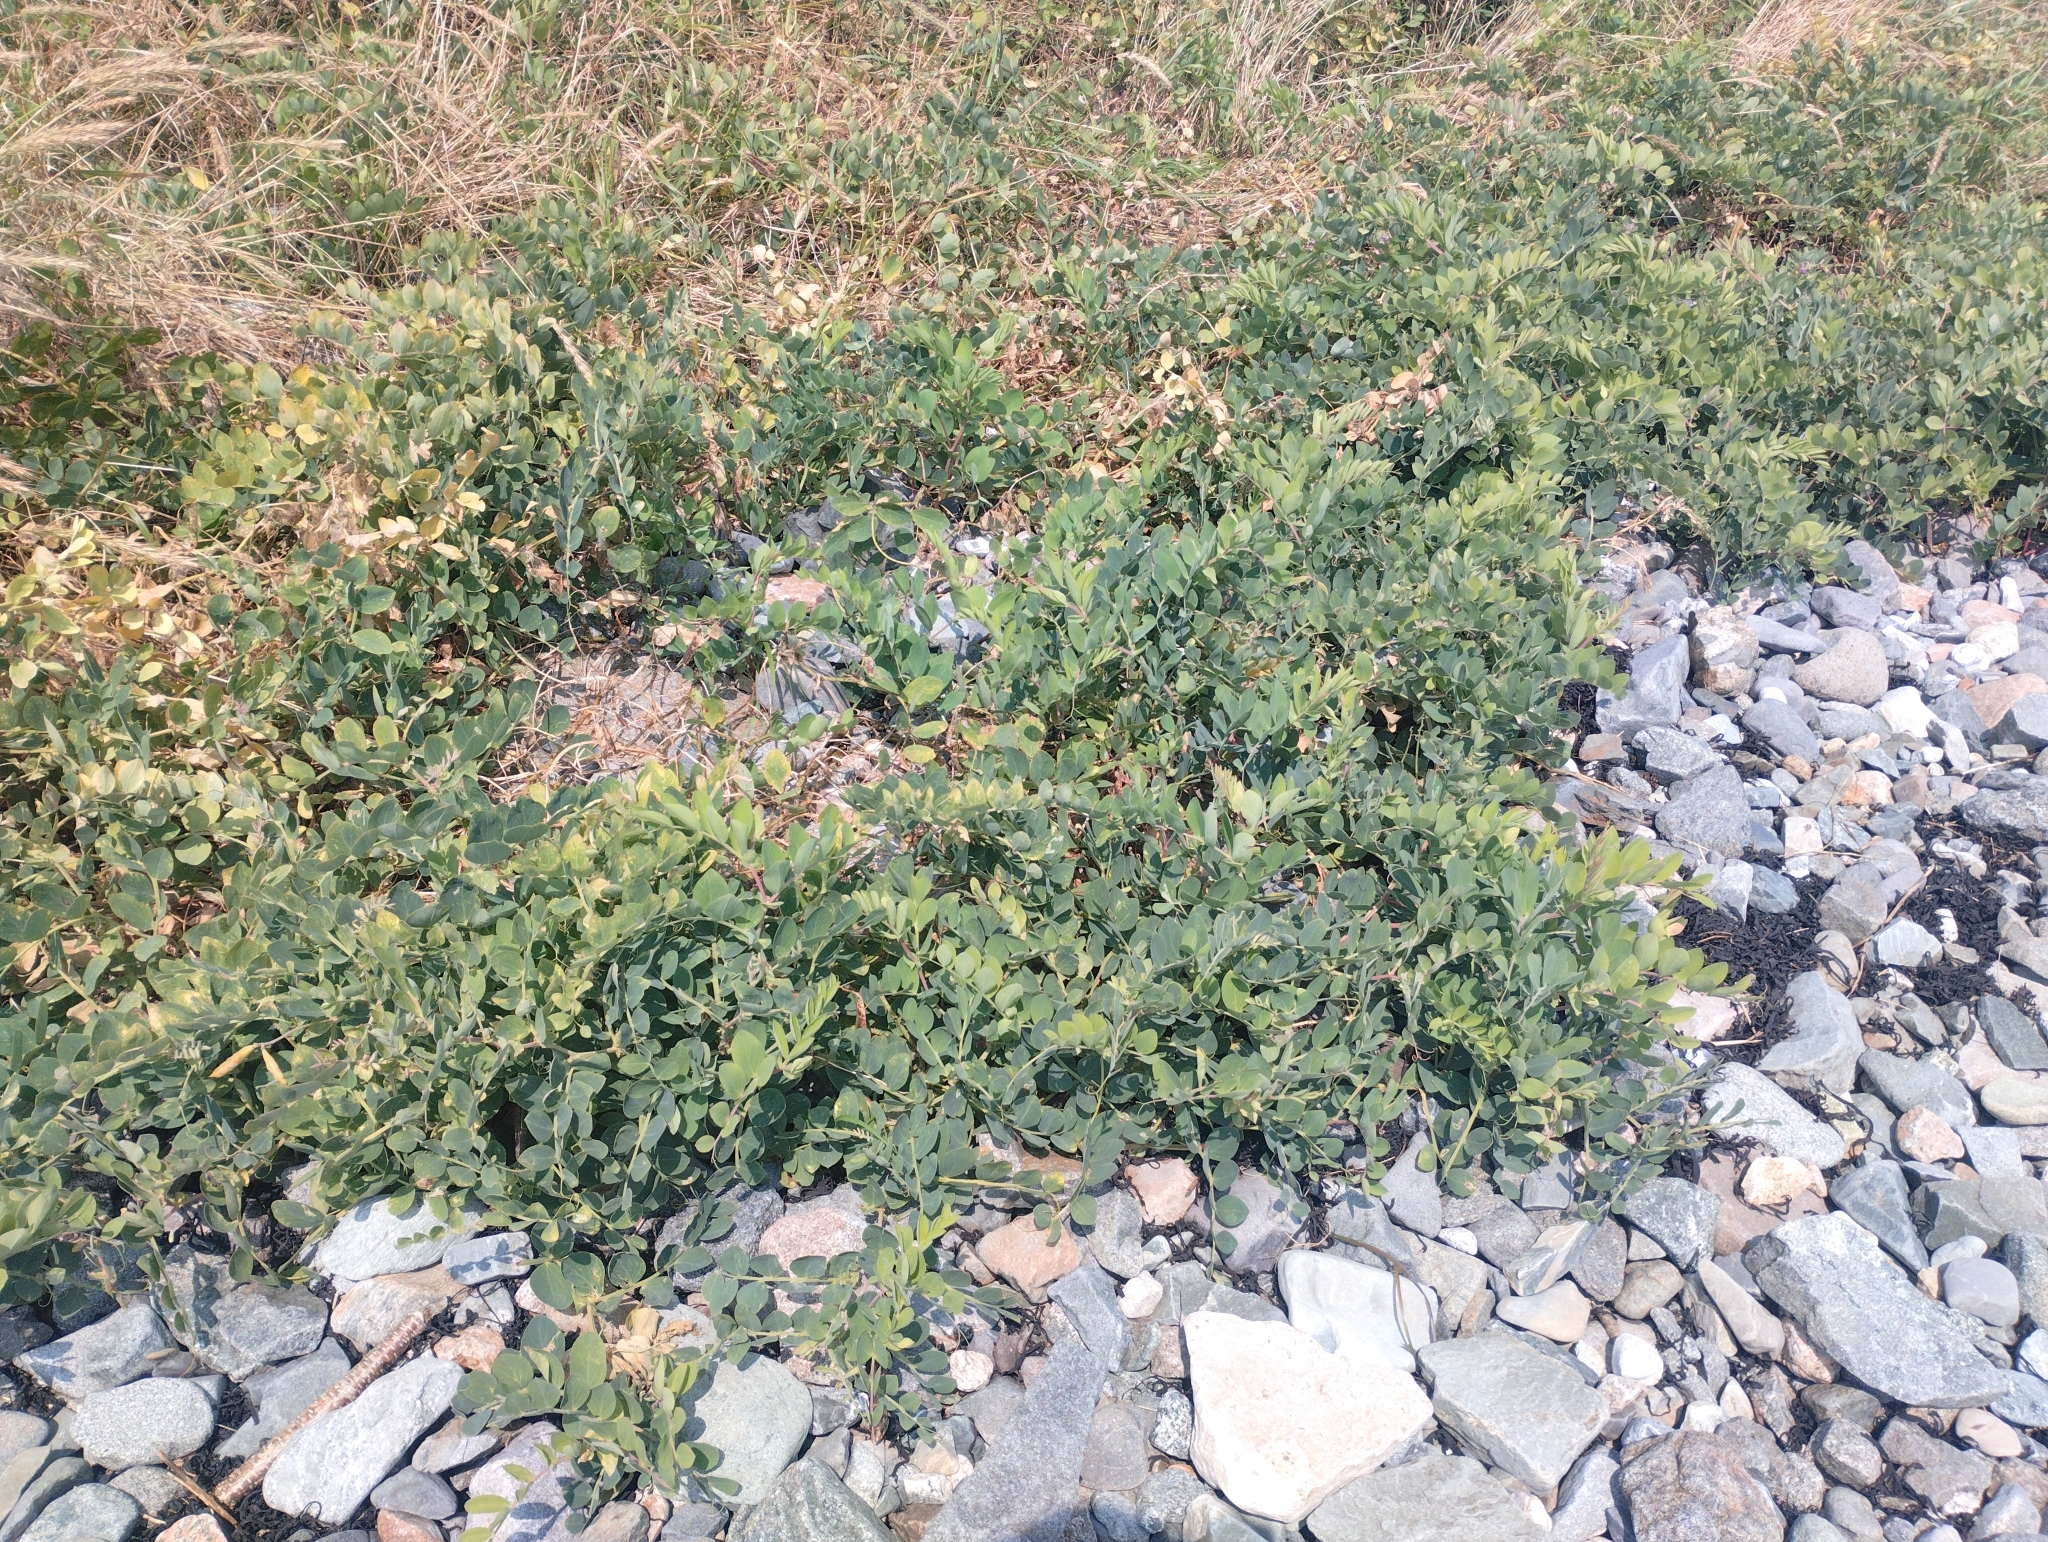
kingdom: Plantae
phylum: Tracheophyta
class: Magnoliopsida
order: Fabales
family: Fabaceae
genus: Lathyrus
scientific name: Lathyrus japonicus
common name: Sea pea
